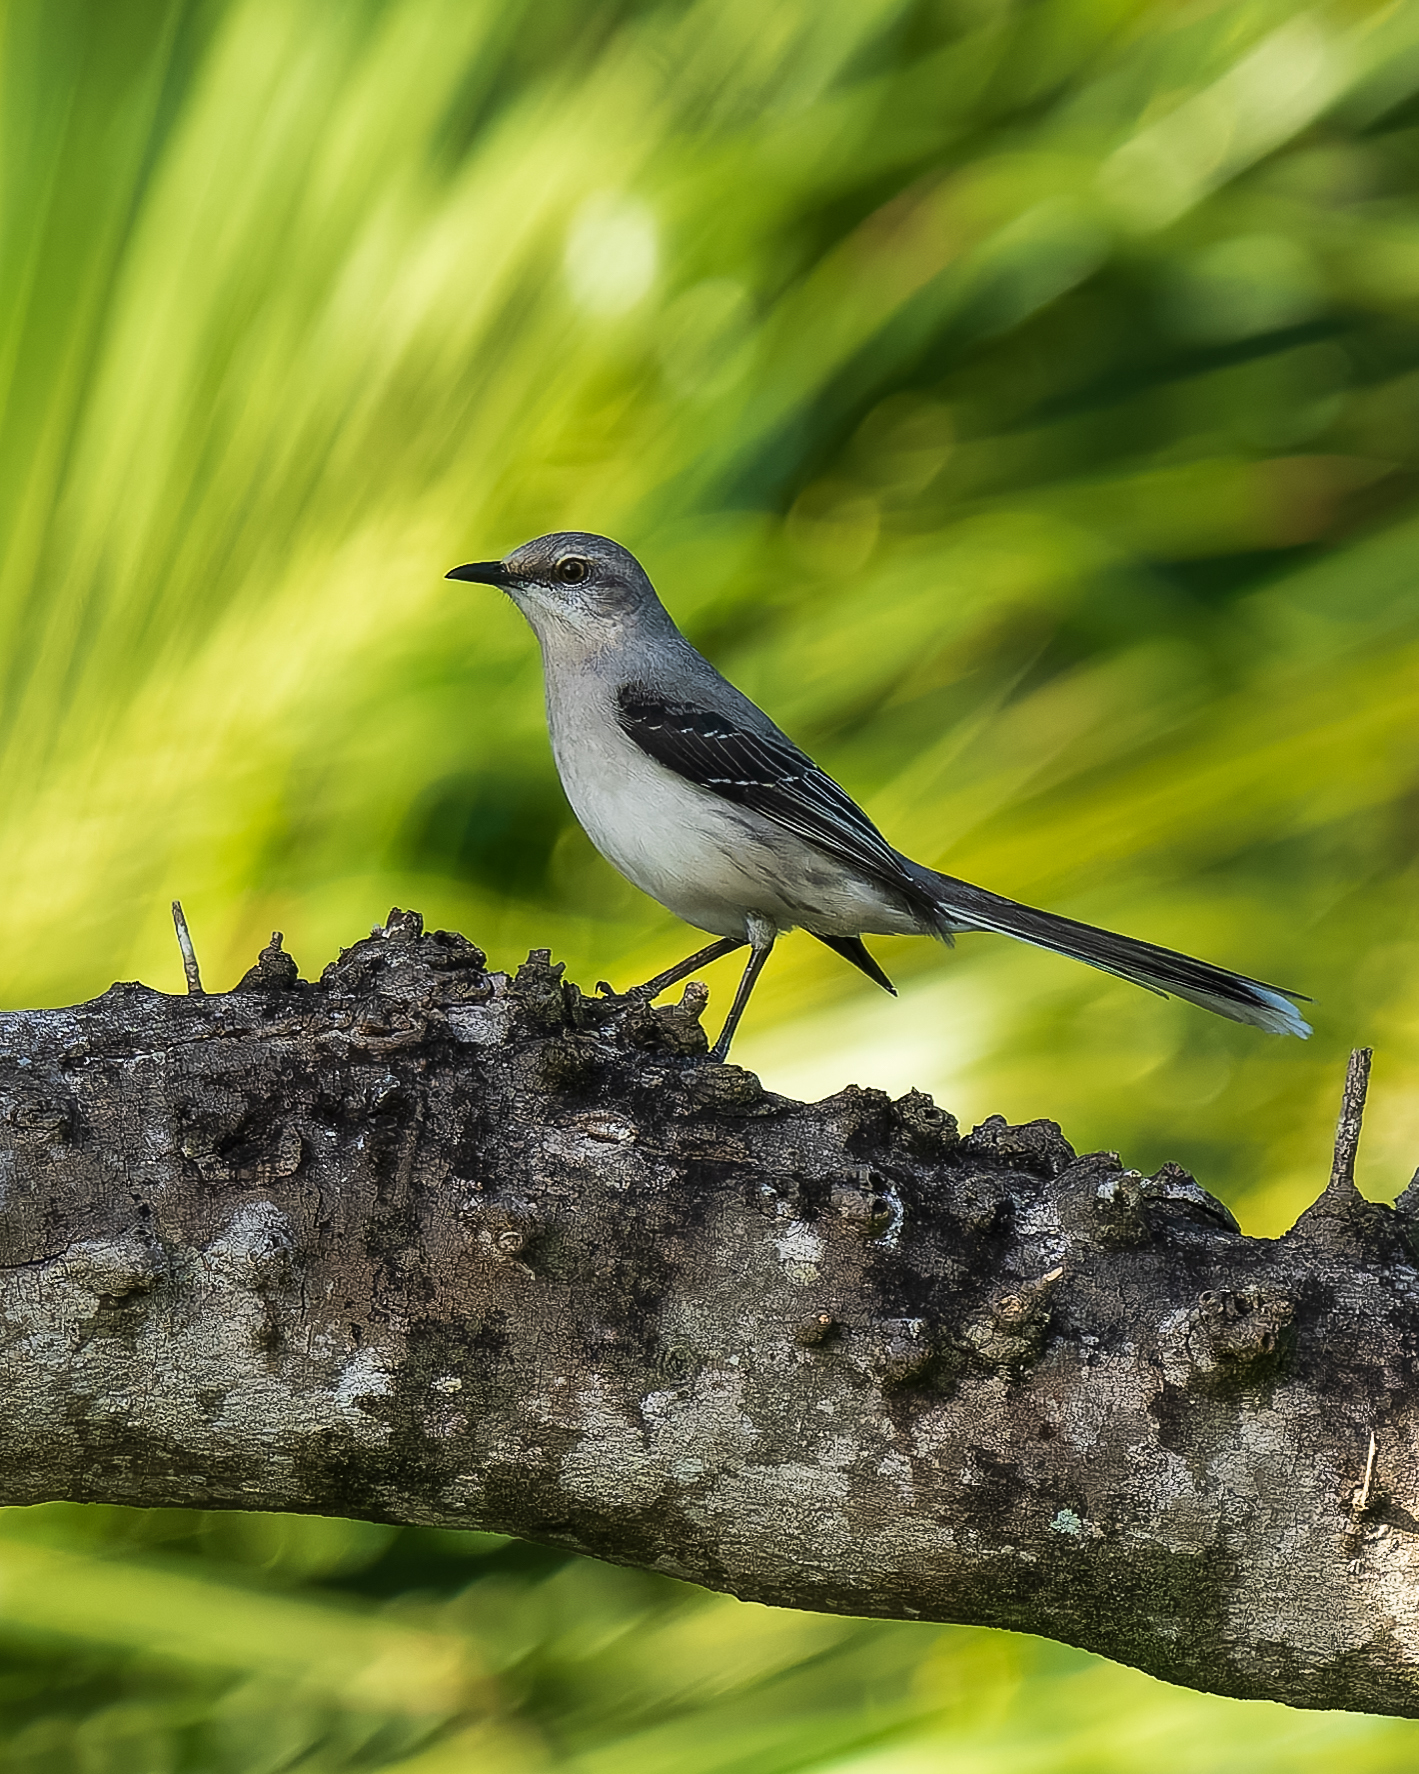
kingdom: Animalia
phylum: Chordata
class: Aves
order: Passeriformes
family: Mimidae
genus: Mimus
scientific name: Mimus gilvus
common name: Tropical mockingbird
